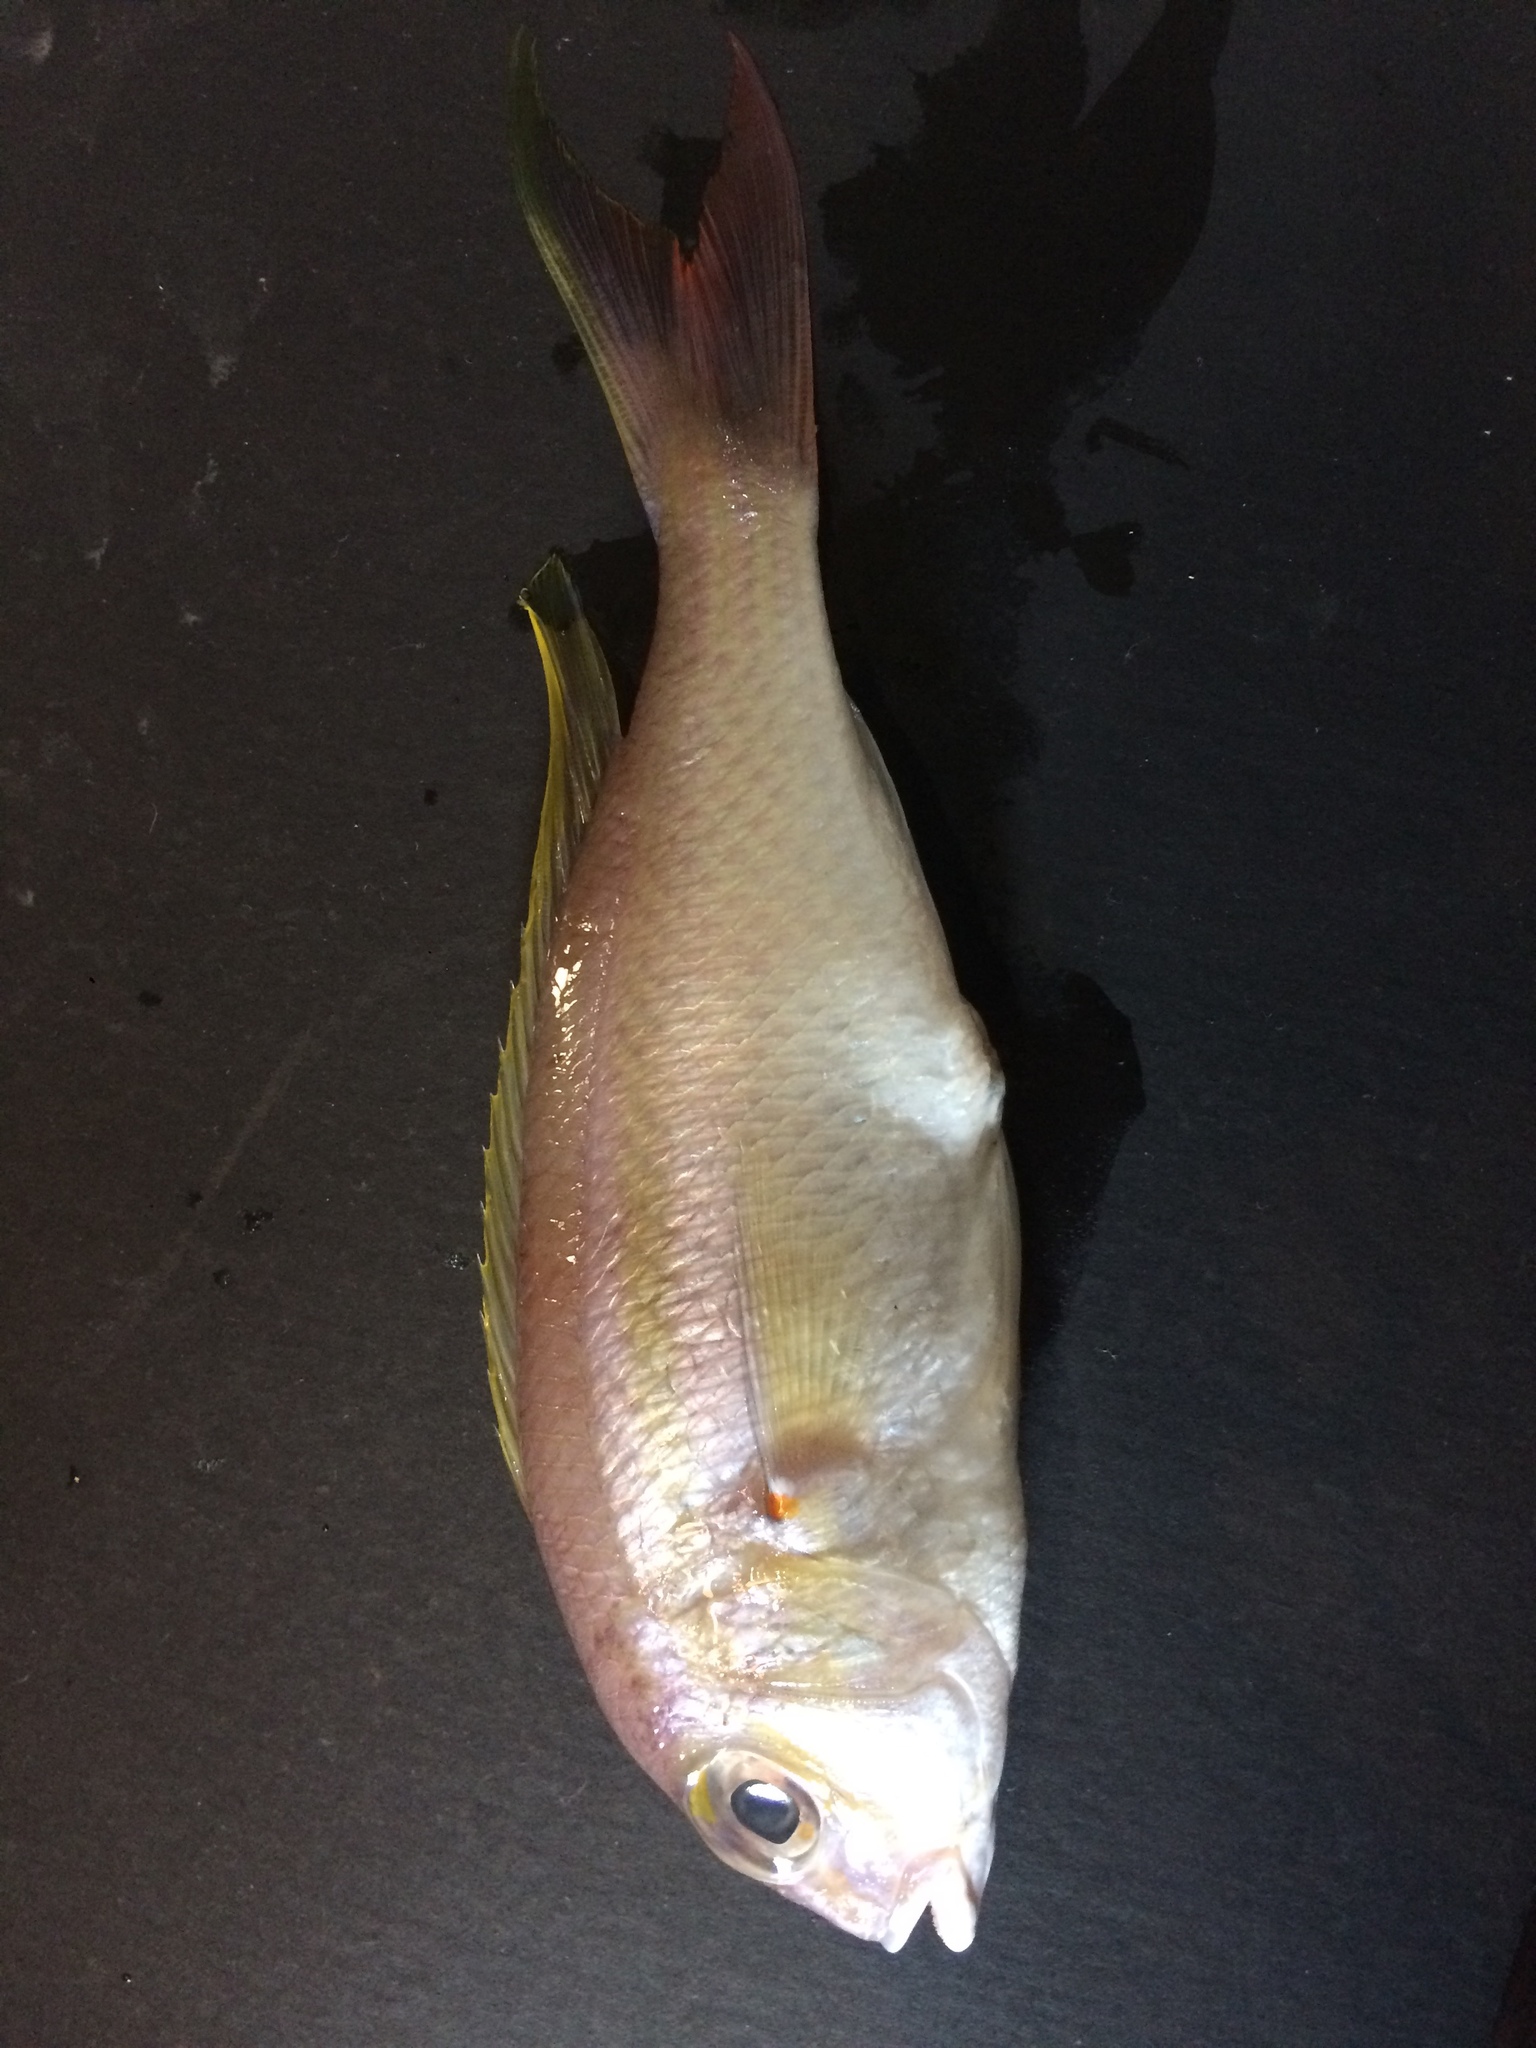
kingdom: Animalia
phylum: Chordata
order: Perciformes
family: Nemipteridae
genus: Scolopsis
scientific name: Scolopsis taenioptera
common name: Lattice monocle bream
